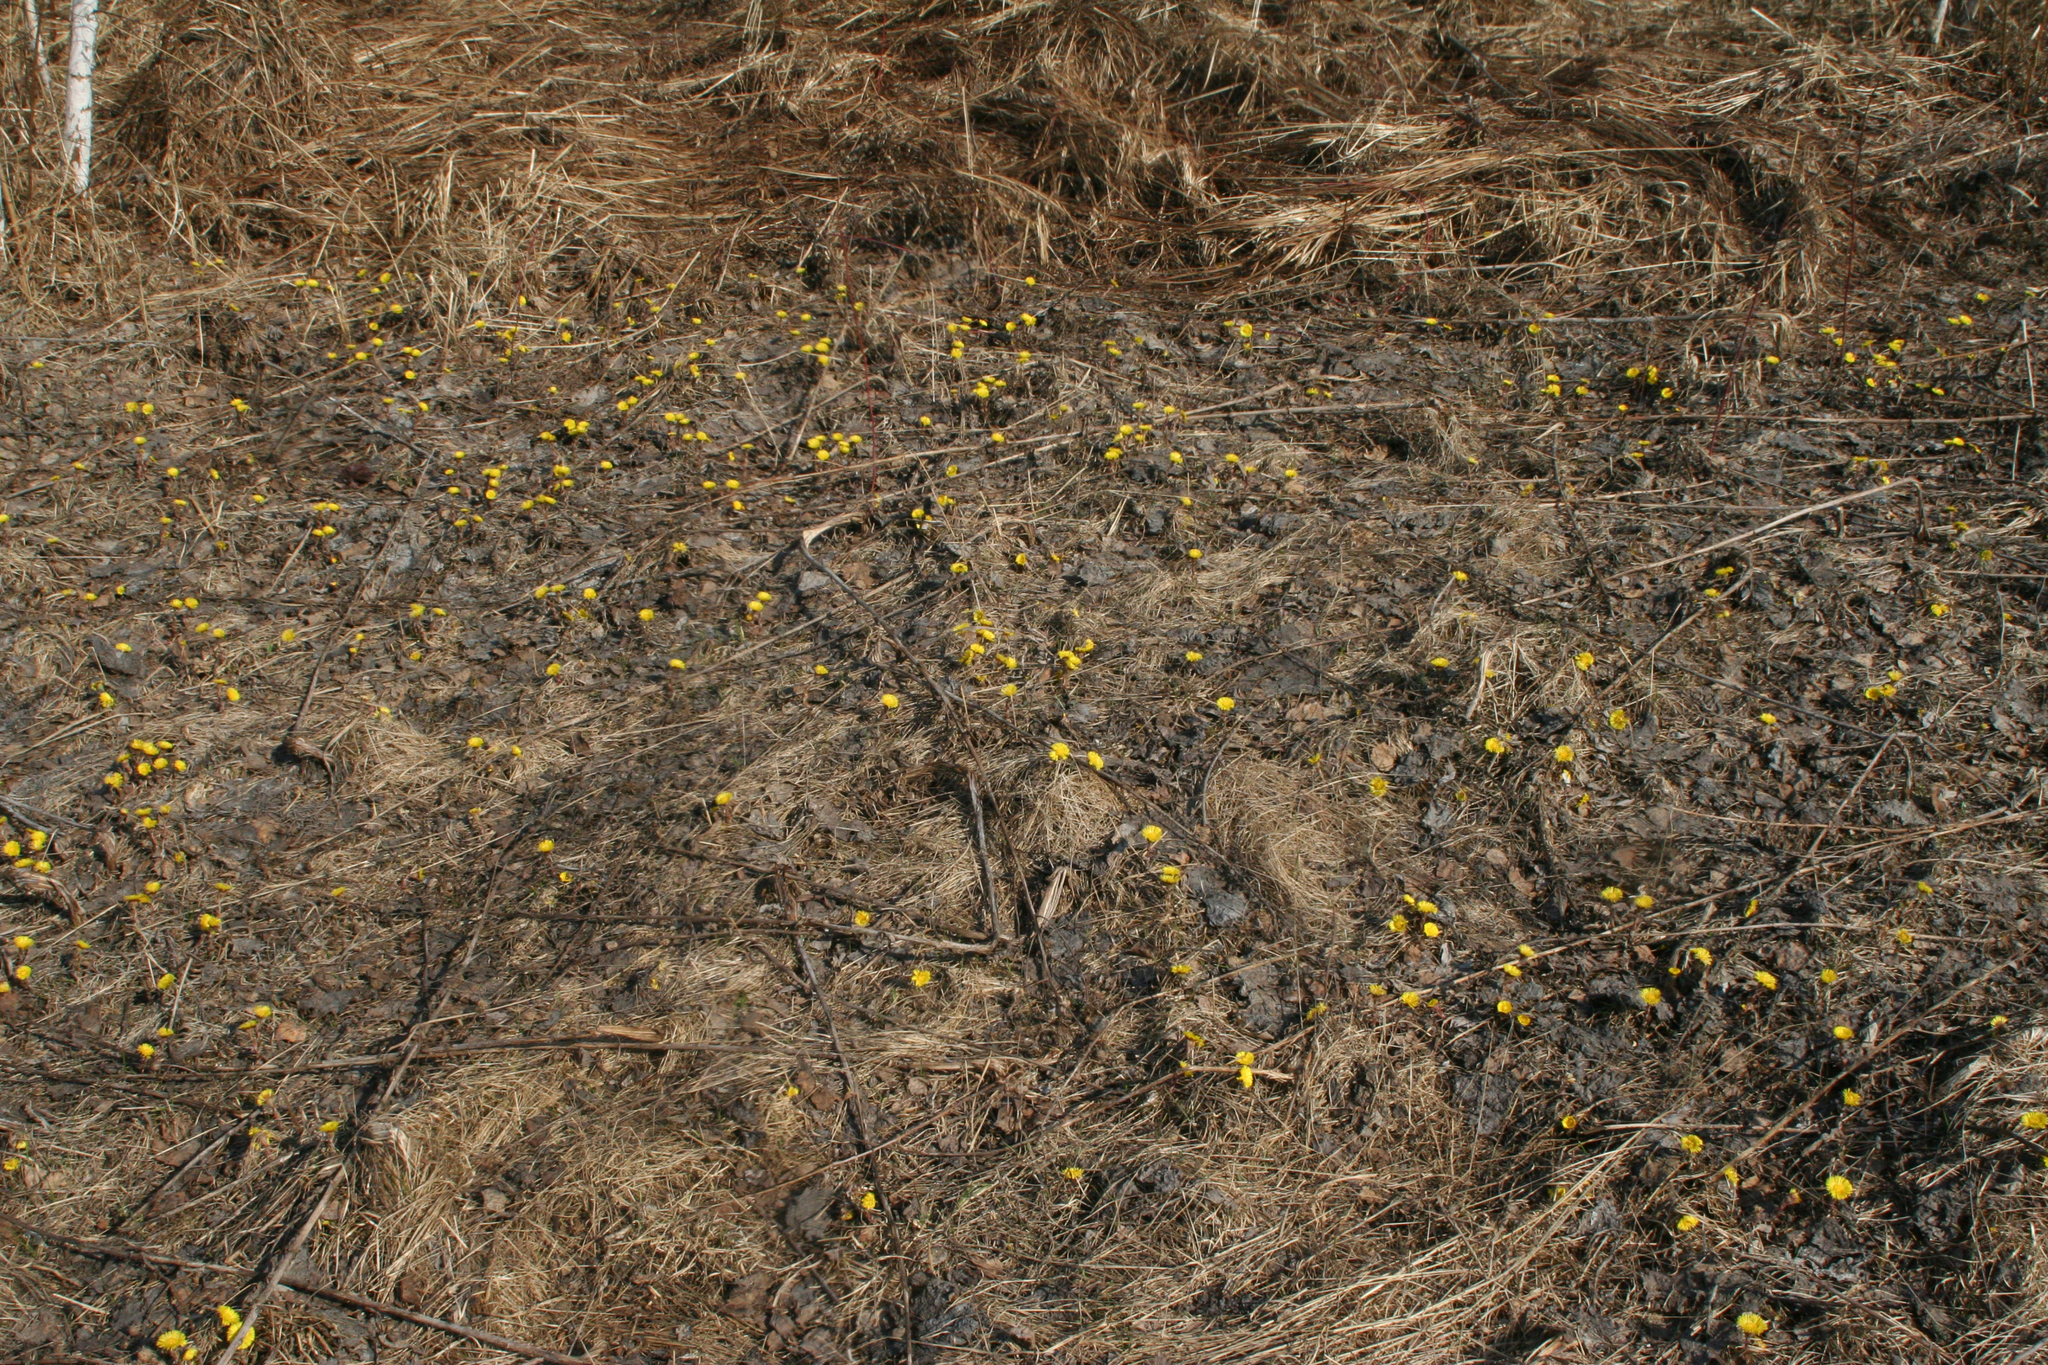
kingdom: Plantae
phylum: Tracheophyta
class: Magnoliopsida
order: Asterales
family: Asteraceae
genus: Tussilago
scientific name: Tussilago farfara
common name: Coltsfoot
